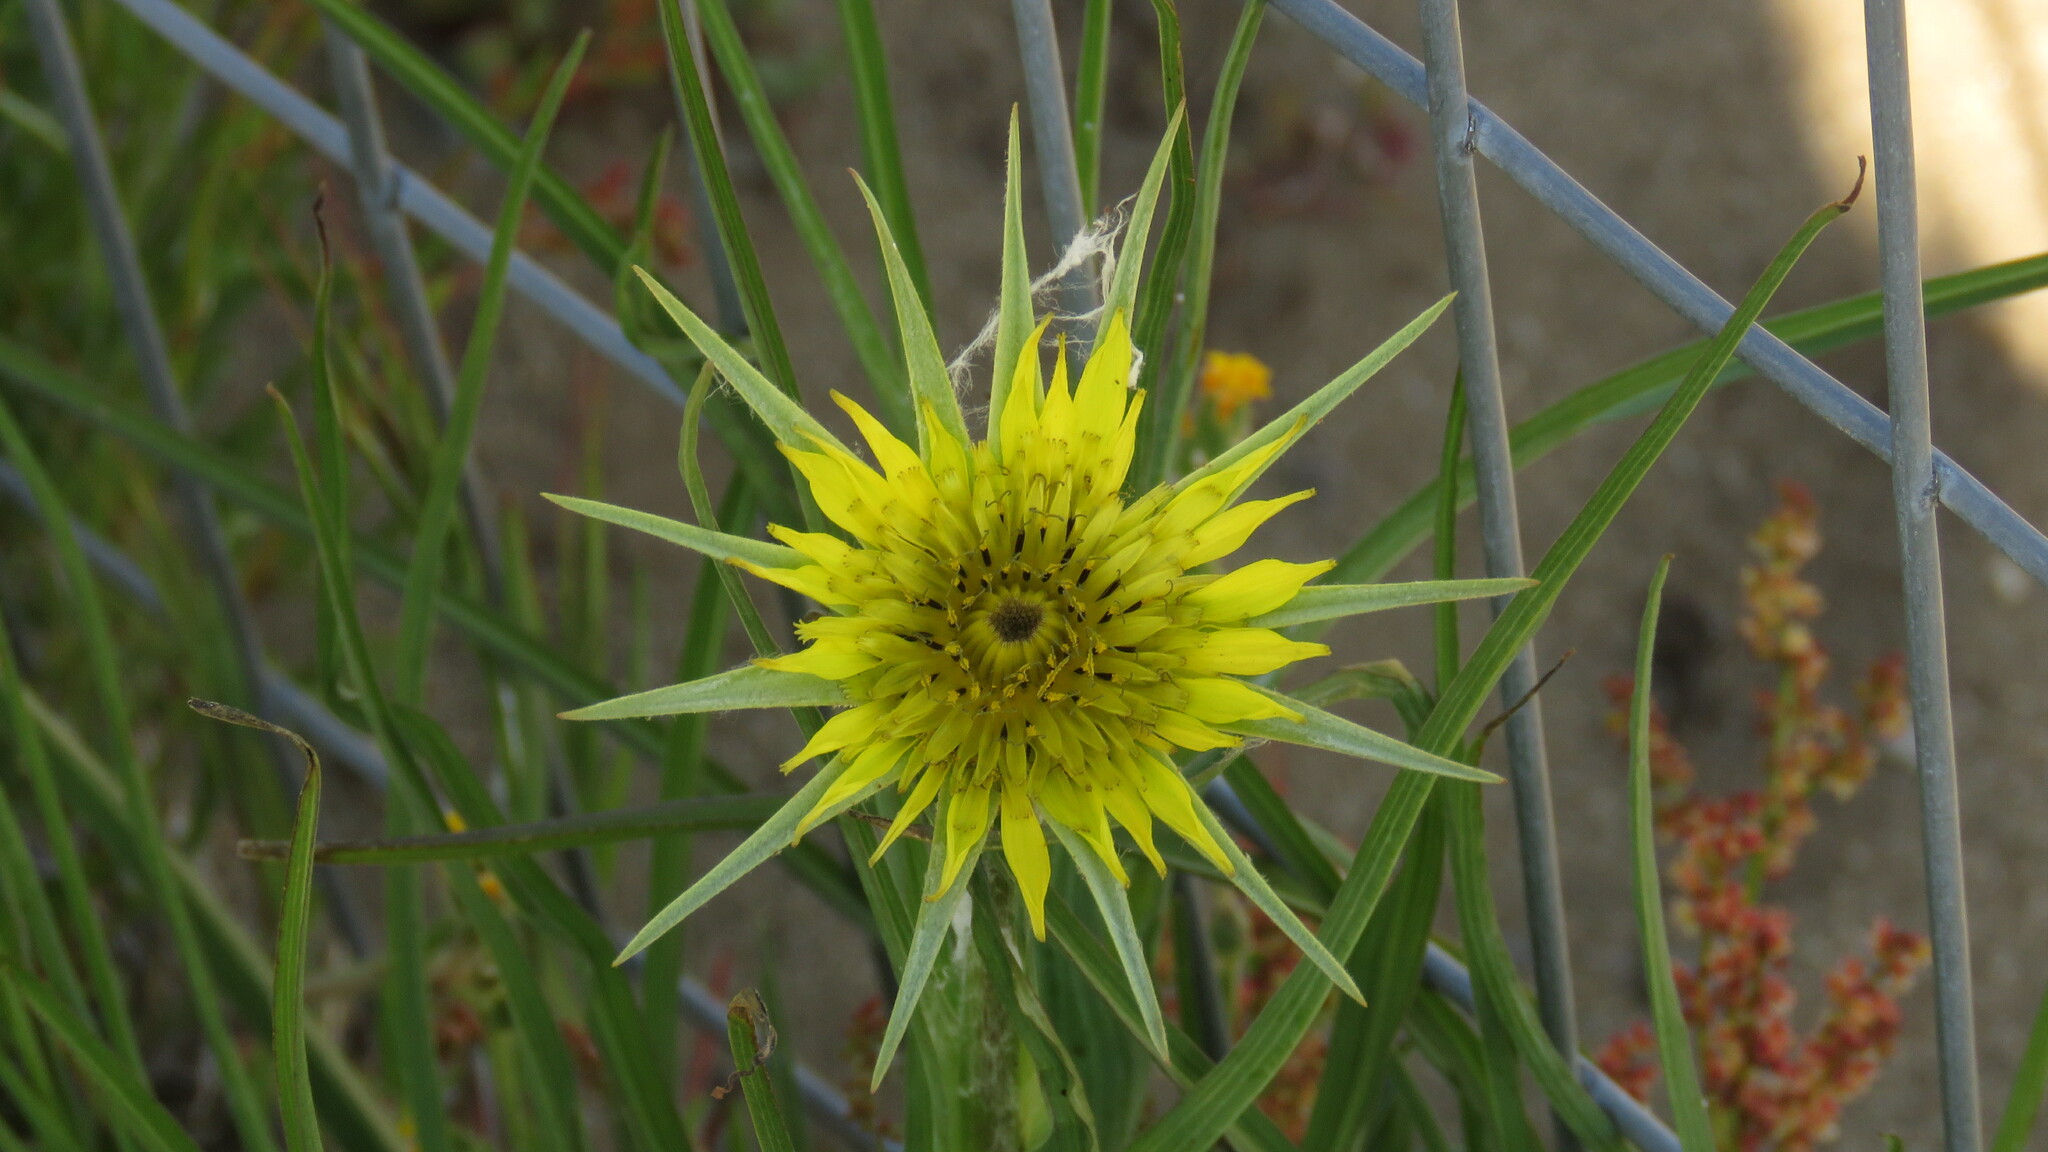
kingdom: Plantae
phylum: Tracheophyta
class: Magnoliopsida
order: Asterales
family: Asteraceae
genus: Tragopogon
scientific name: Tragopogon dubius
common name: Yellow salsify
